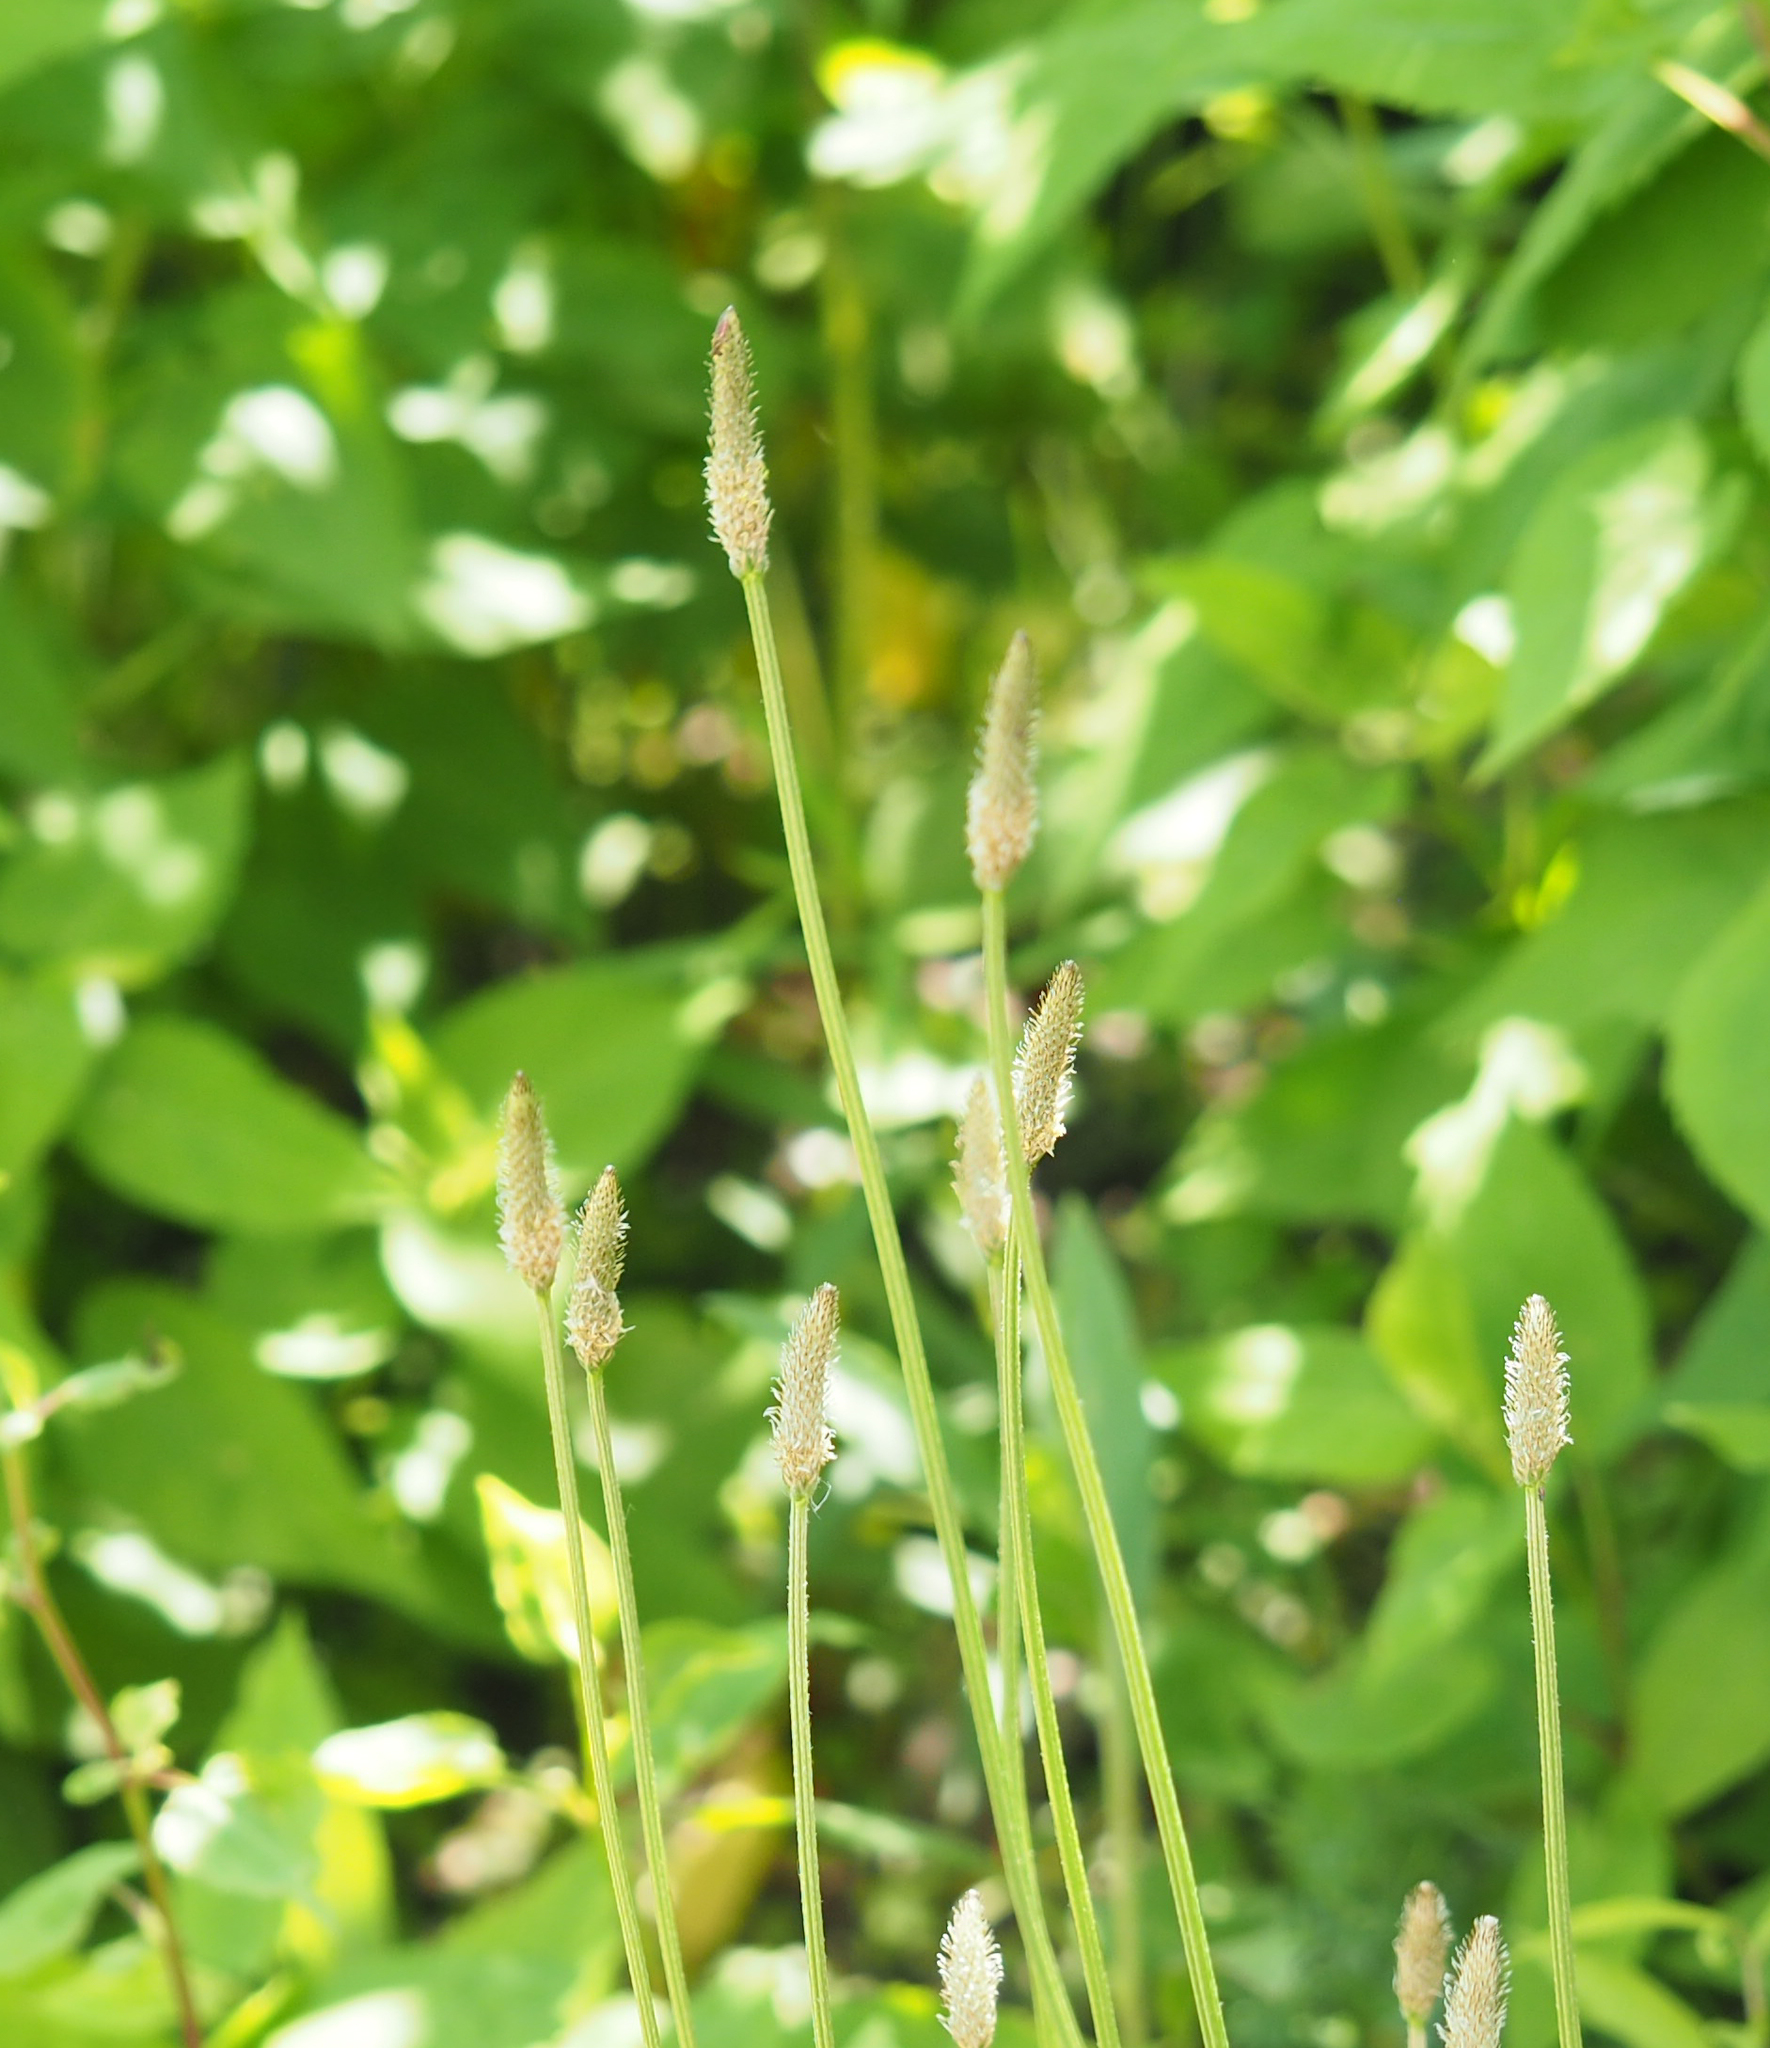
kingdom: Plantae
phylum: Tracheophyta
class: Magnoliopsida
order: Lamiales
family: Plantaginaceae
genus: Plantago
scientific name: Plantago lanceolata
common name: Ribwort plantain
